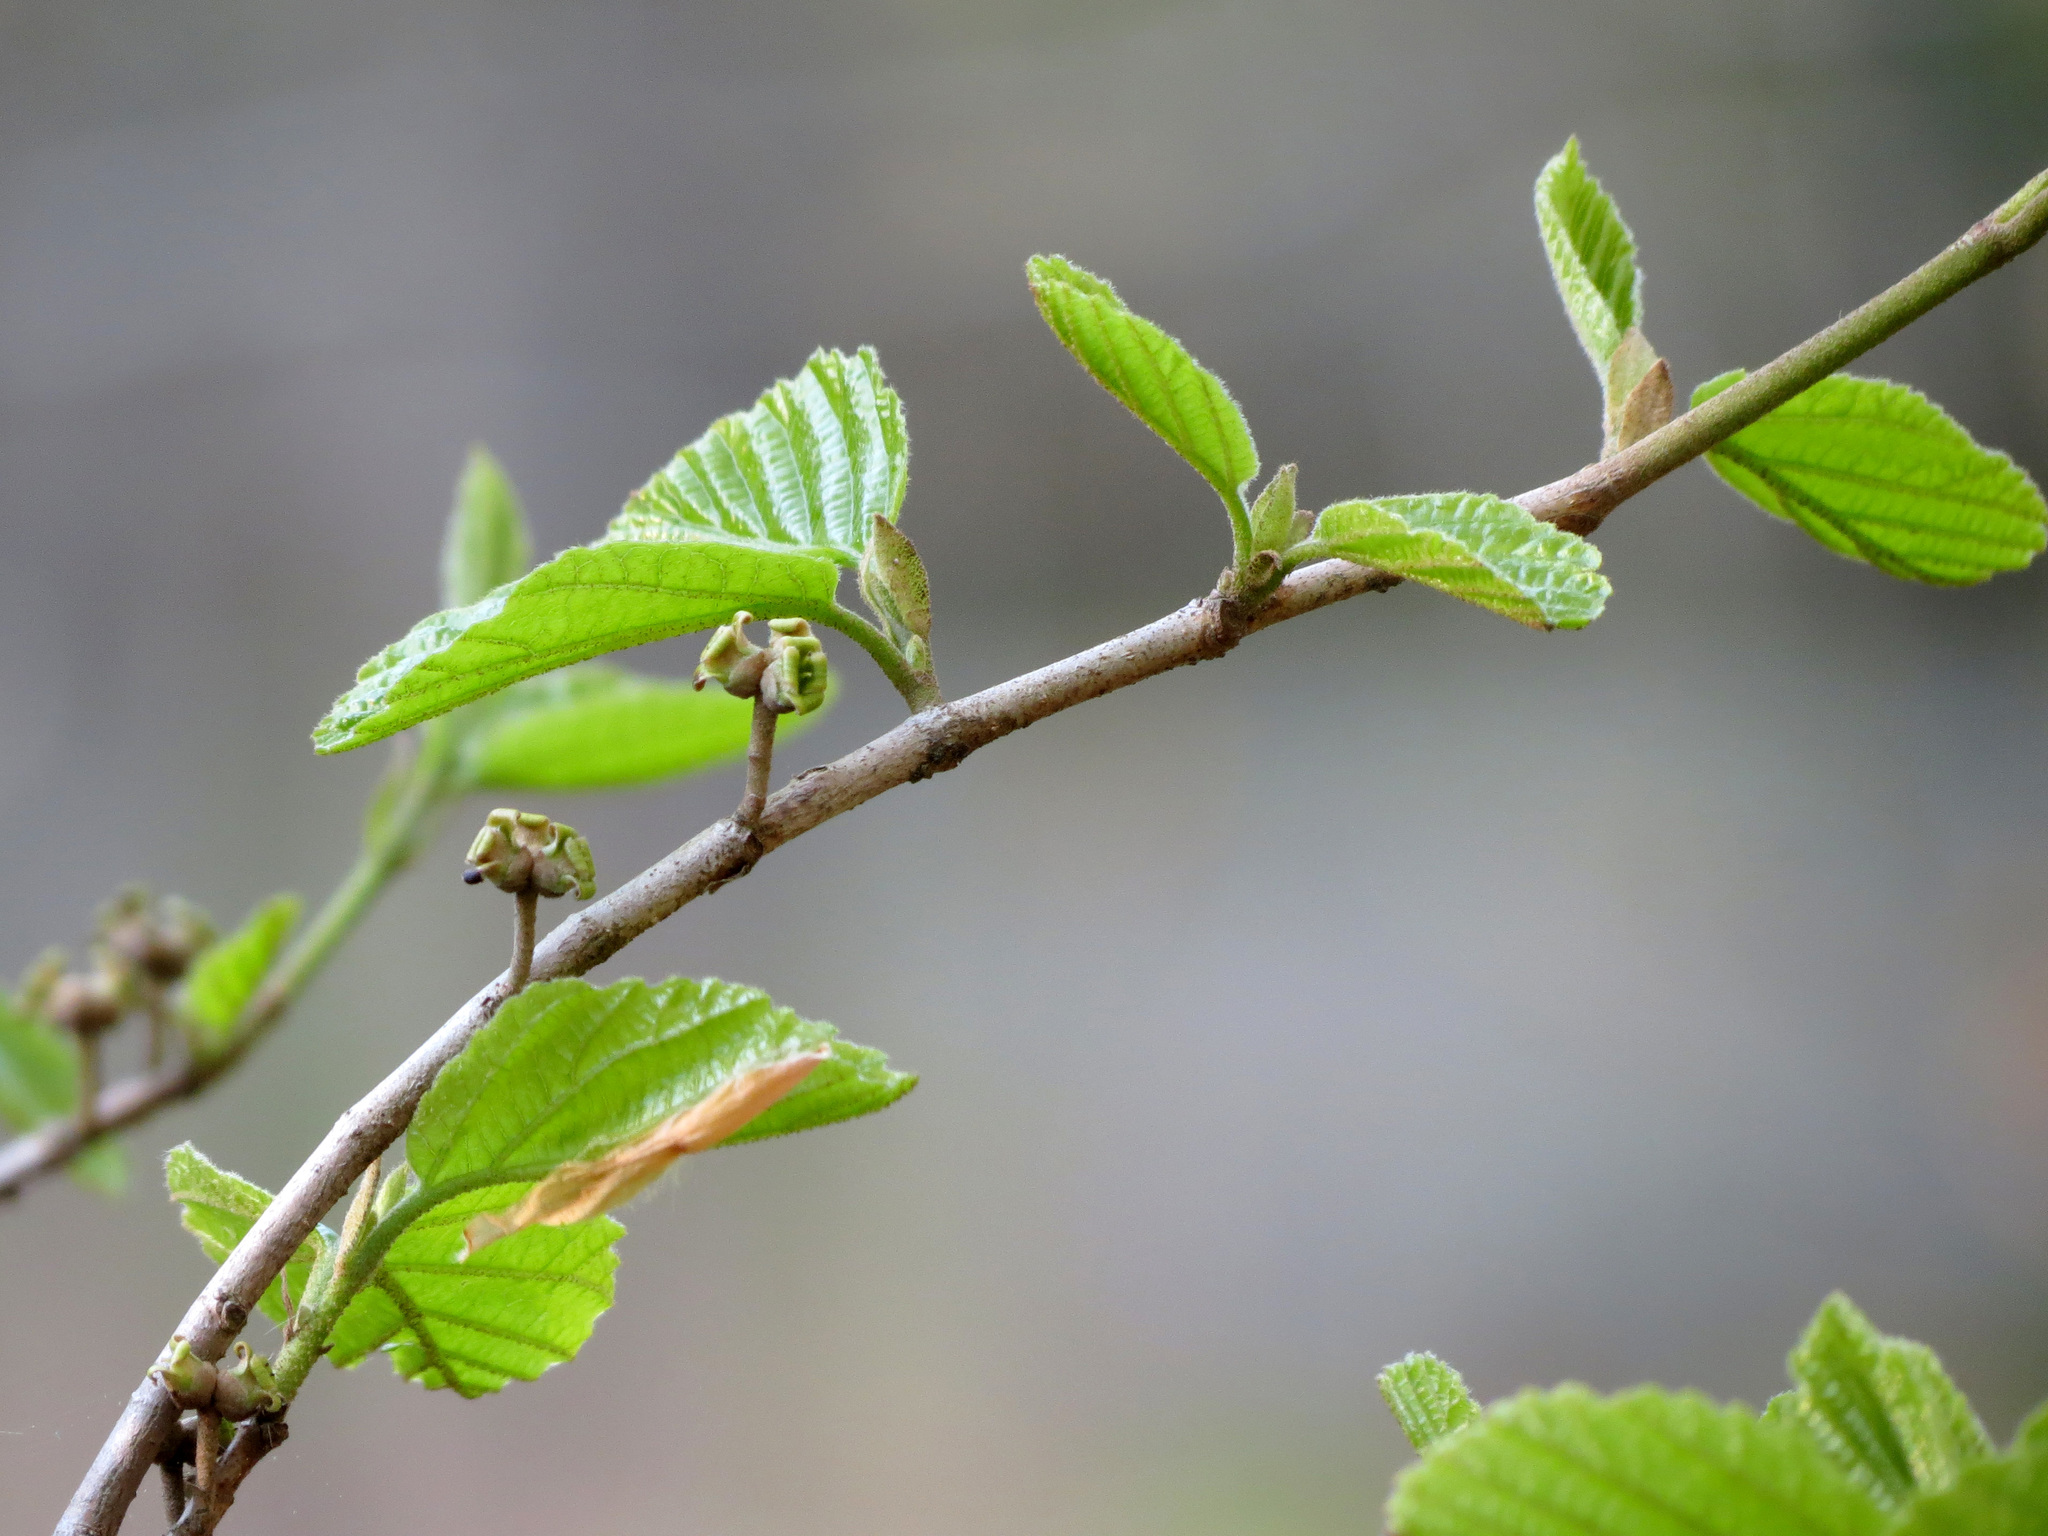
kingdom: Plantae
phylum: Tracheophyta
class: Magnoliopsida
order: Saxifragales
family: Hamamelidaceae
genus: Hamamelis
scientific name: Hamamelis virginiana
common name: Witch-hazel
